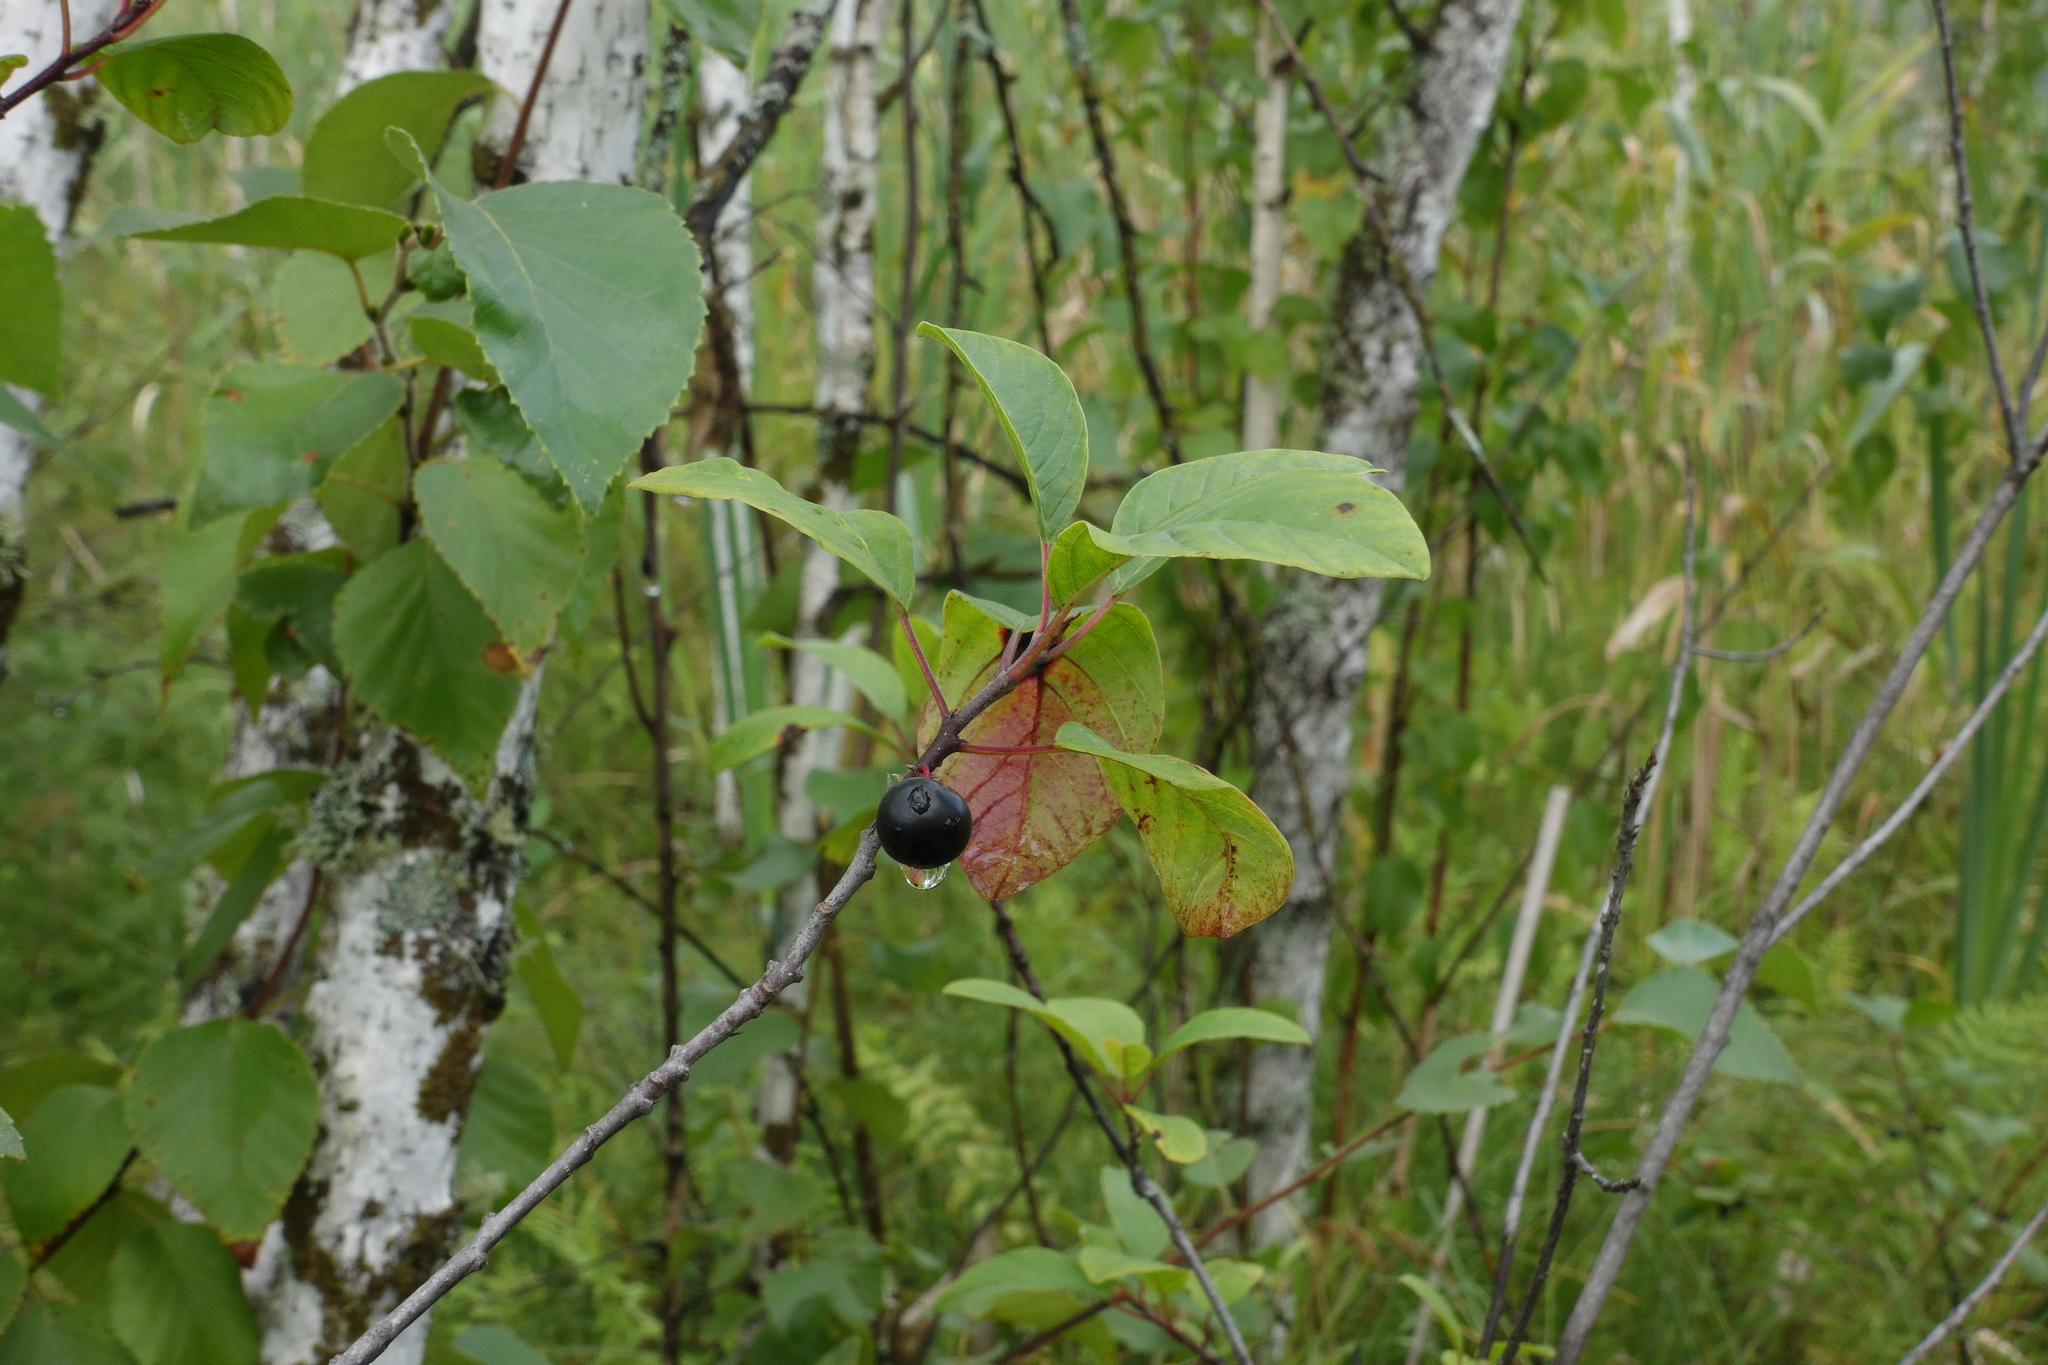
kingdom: Plantae
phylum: Tracheophyta
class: Magnoliopsida
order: Rosales
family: Rhamnaceae
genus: Frangula
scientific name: Frangula alnus
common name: Alder buckthorn
